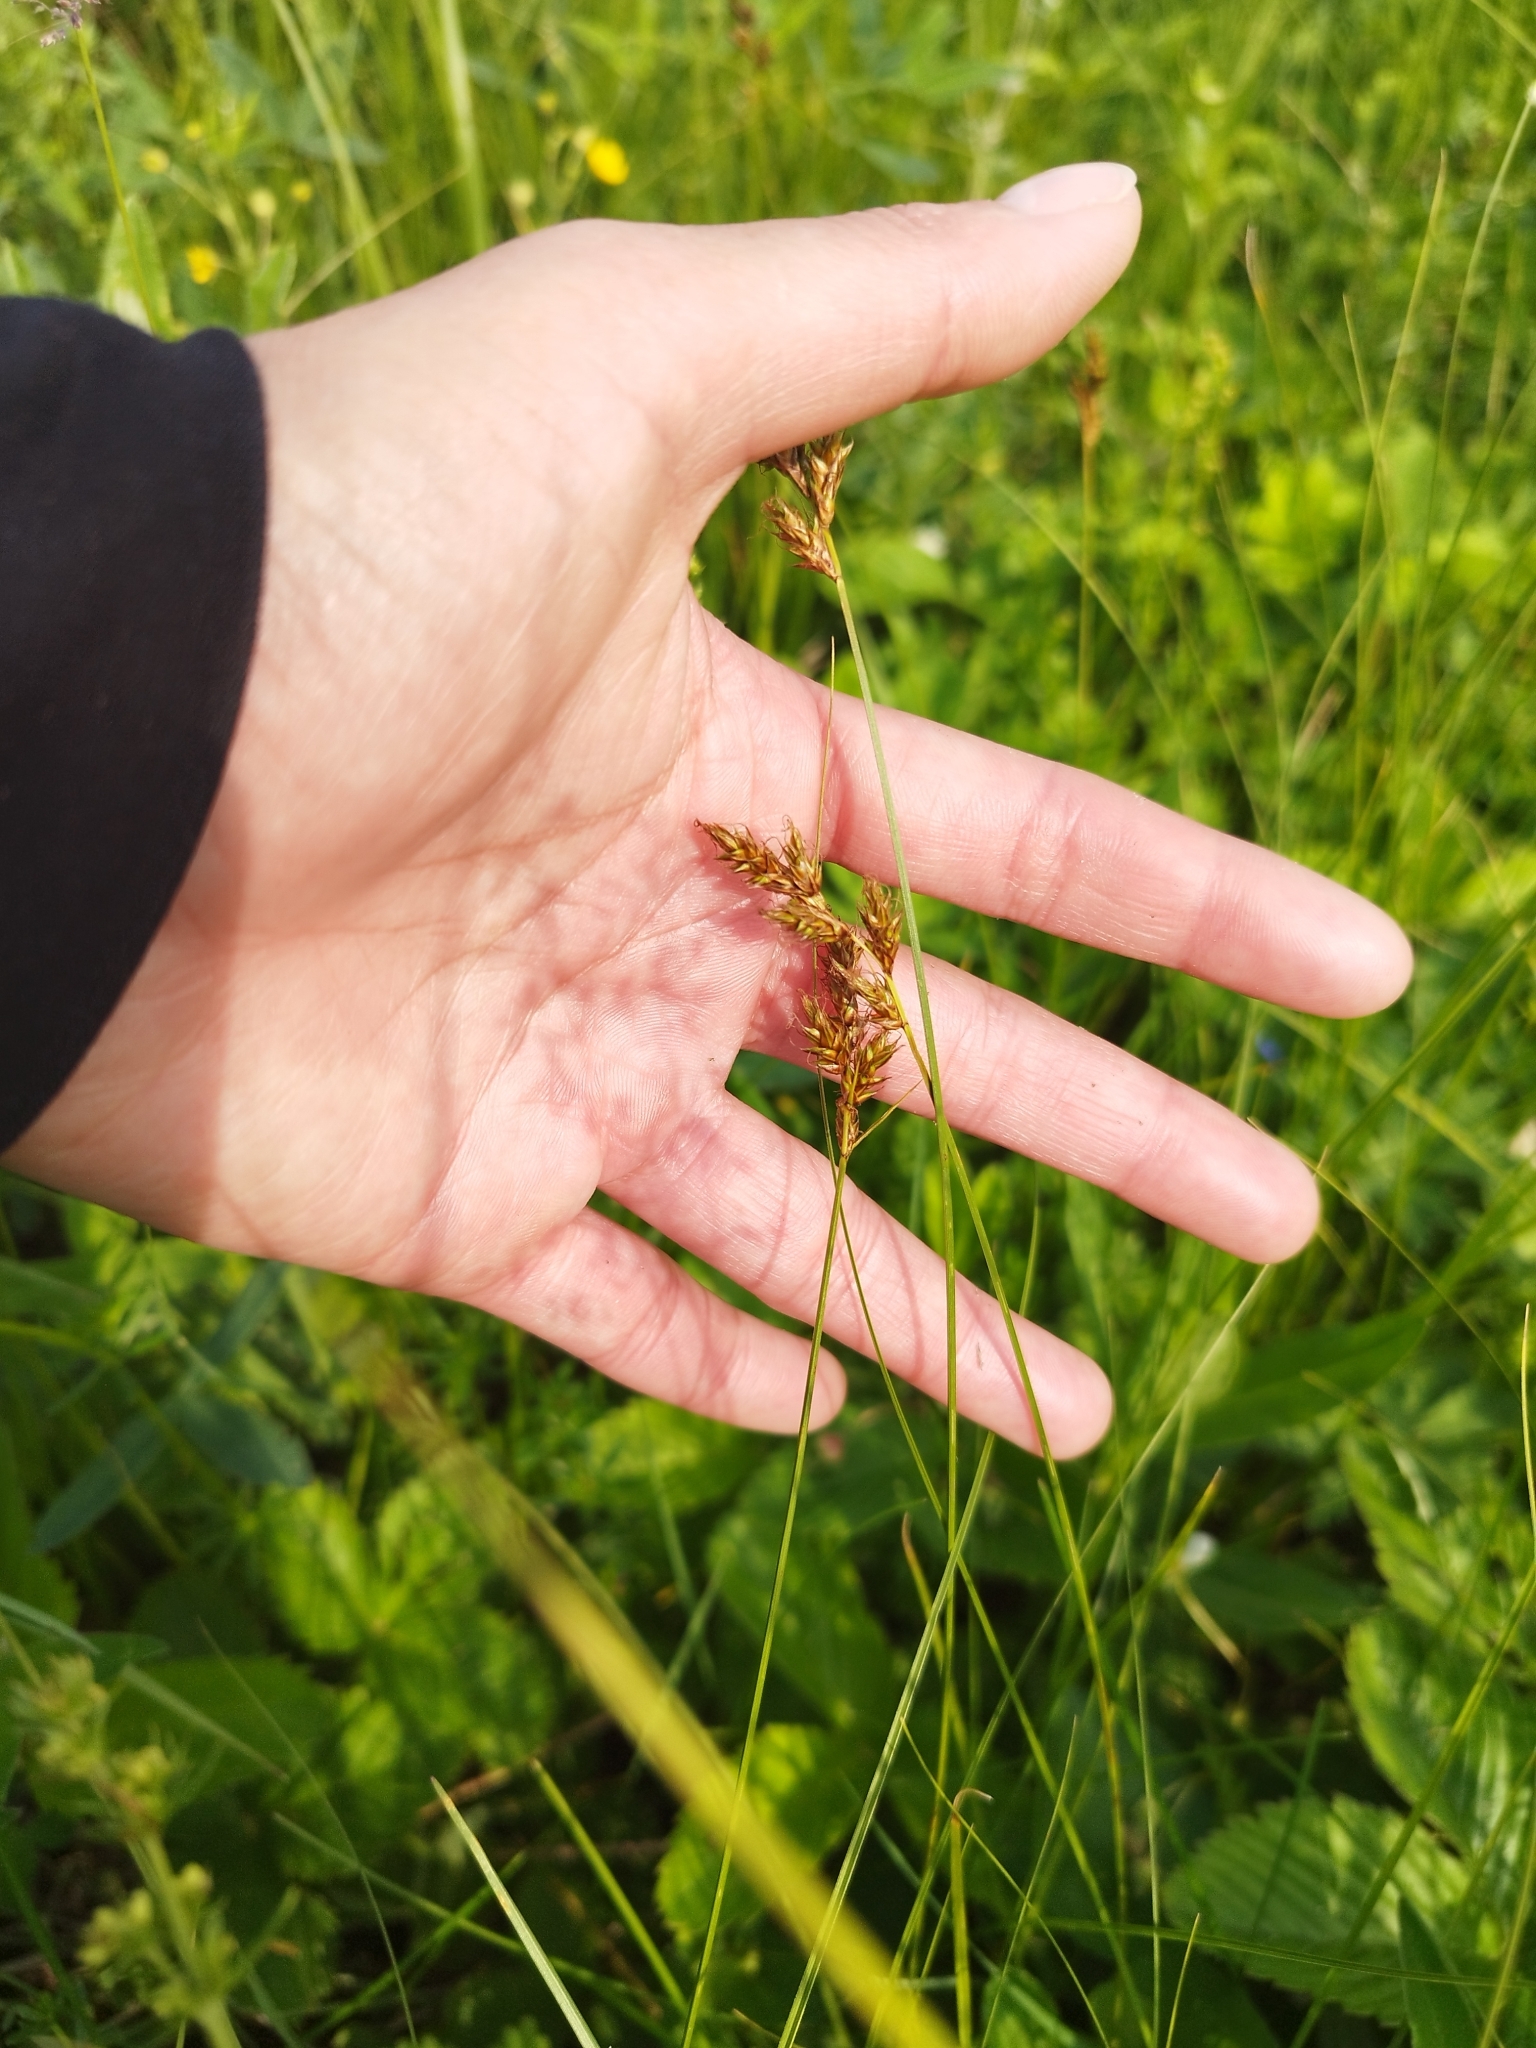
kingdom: Plantae
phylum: Tracheophyta
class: Liliopsida
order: Poales
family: Cyperaceae
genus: Carex
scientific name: Carex praecox
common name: Early sedge
